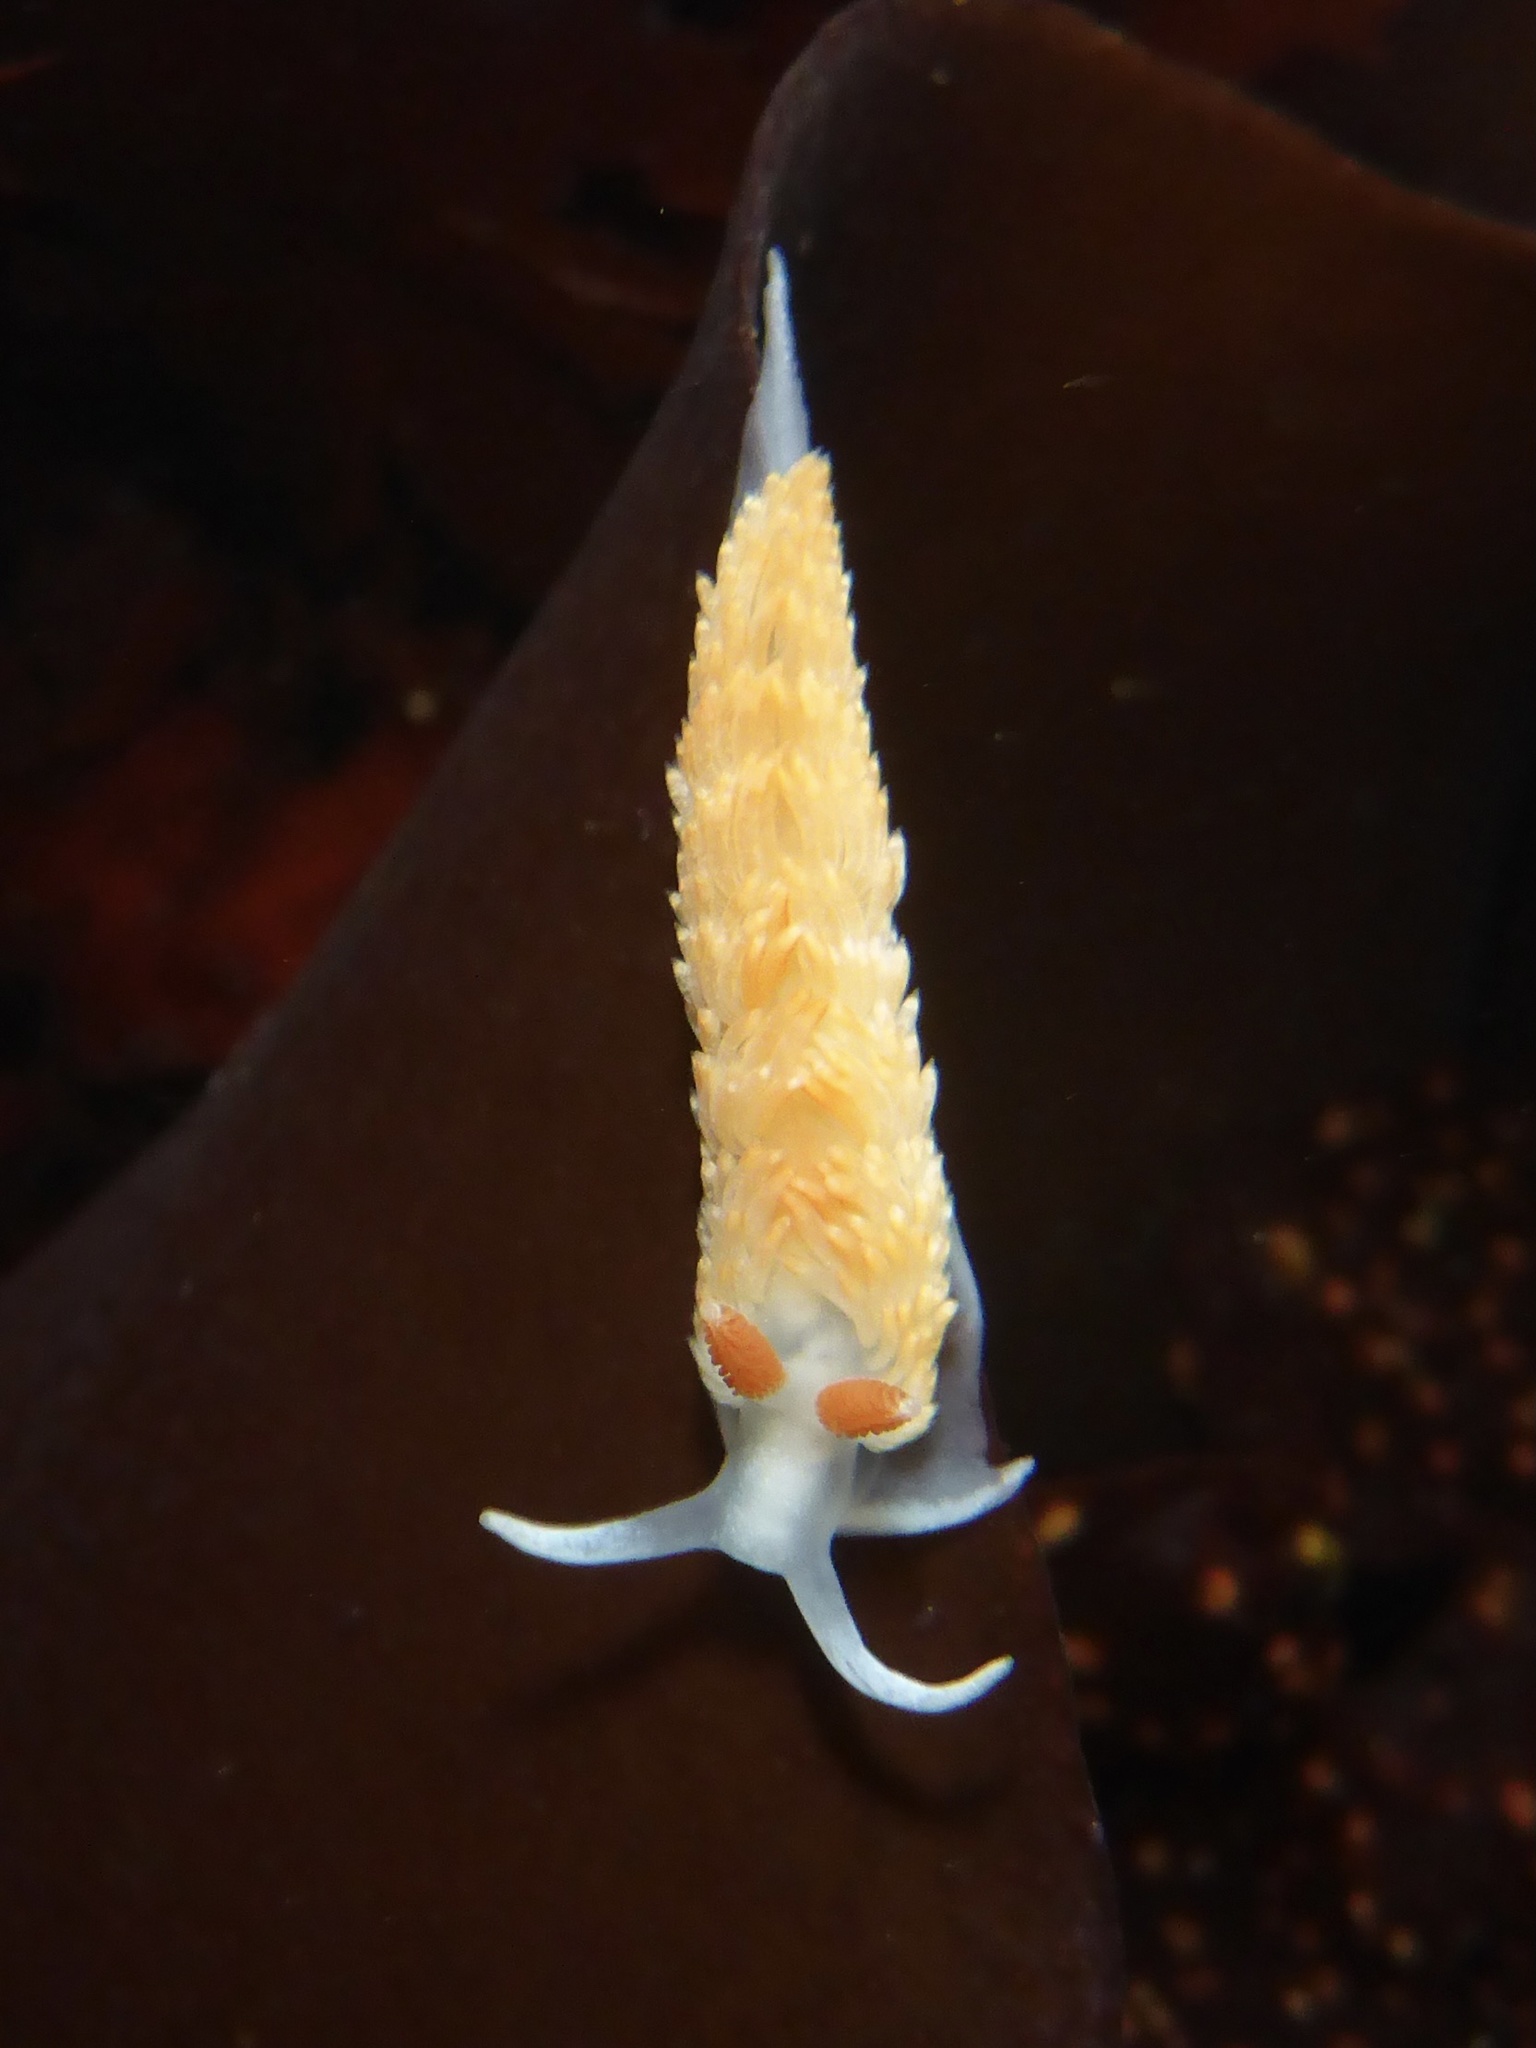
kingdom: Animalia
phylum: Mollusca
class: Gastropoda
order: Nudibranchia
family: Aeolidiidae
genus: Anteaeolidiella
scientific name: Anteaeolidiella oliviae
